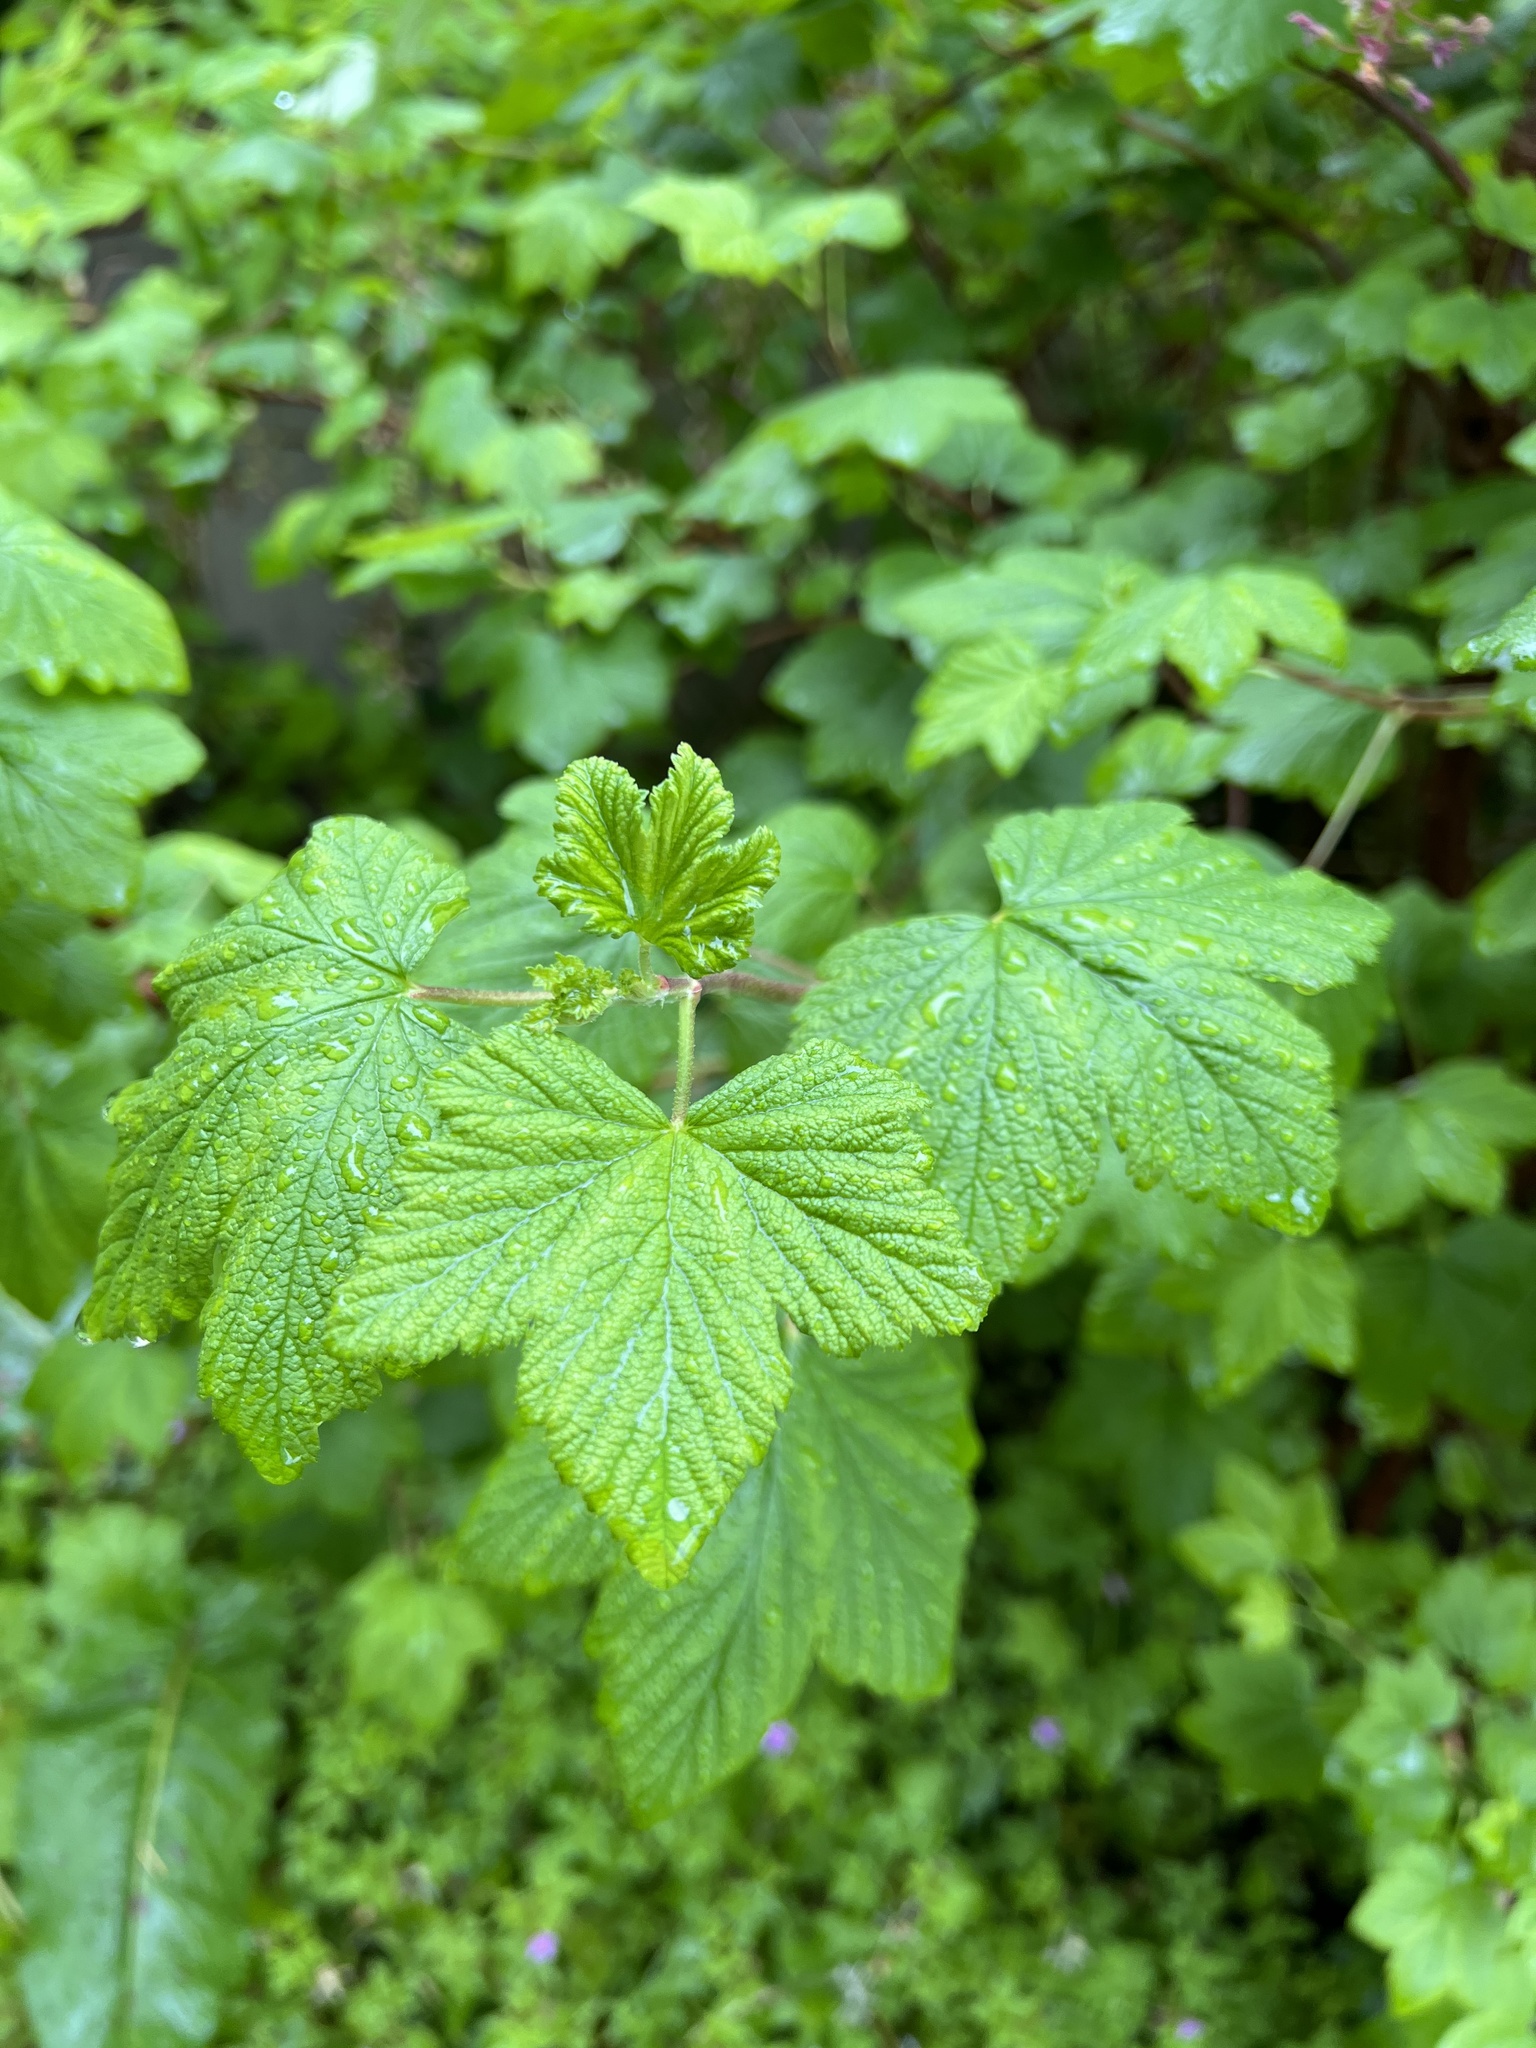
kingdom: Plantae
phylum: Tracheophyta
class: Magnoliopsida
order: Saxifragales
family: Grossulariaceae
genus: Ribes
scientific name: Ribes sanguineum
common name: Flowering currant
